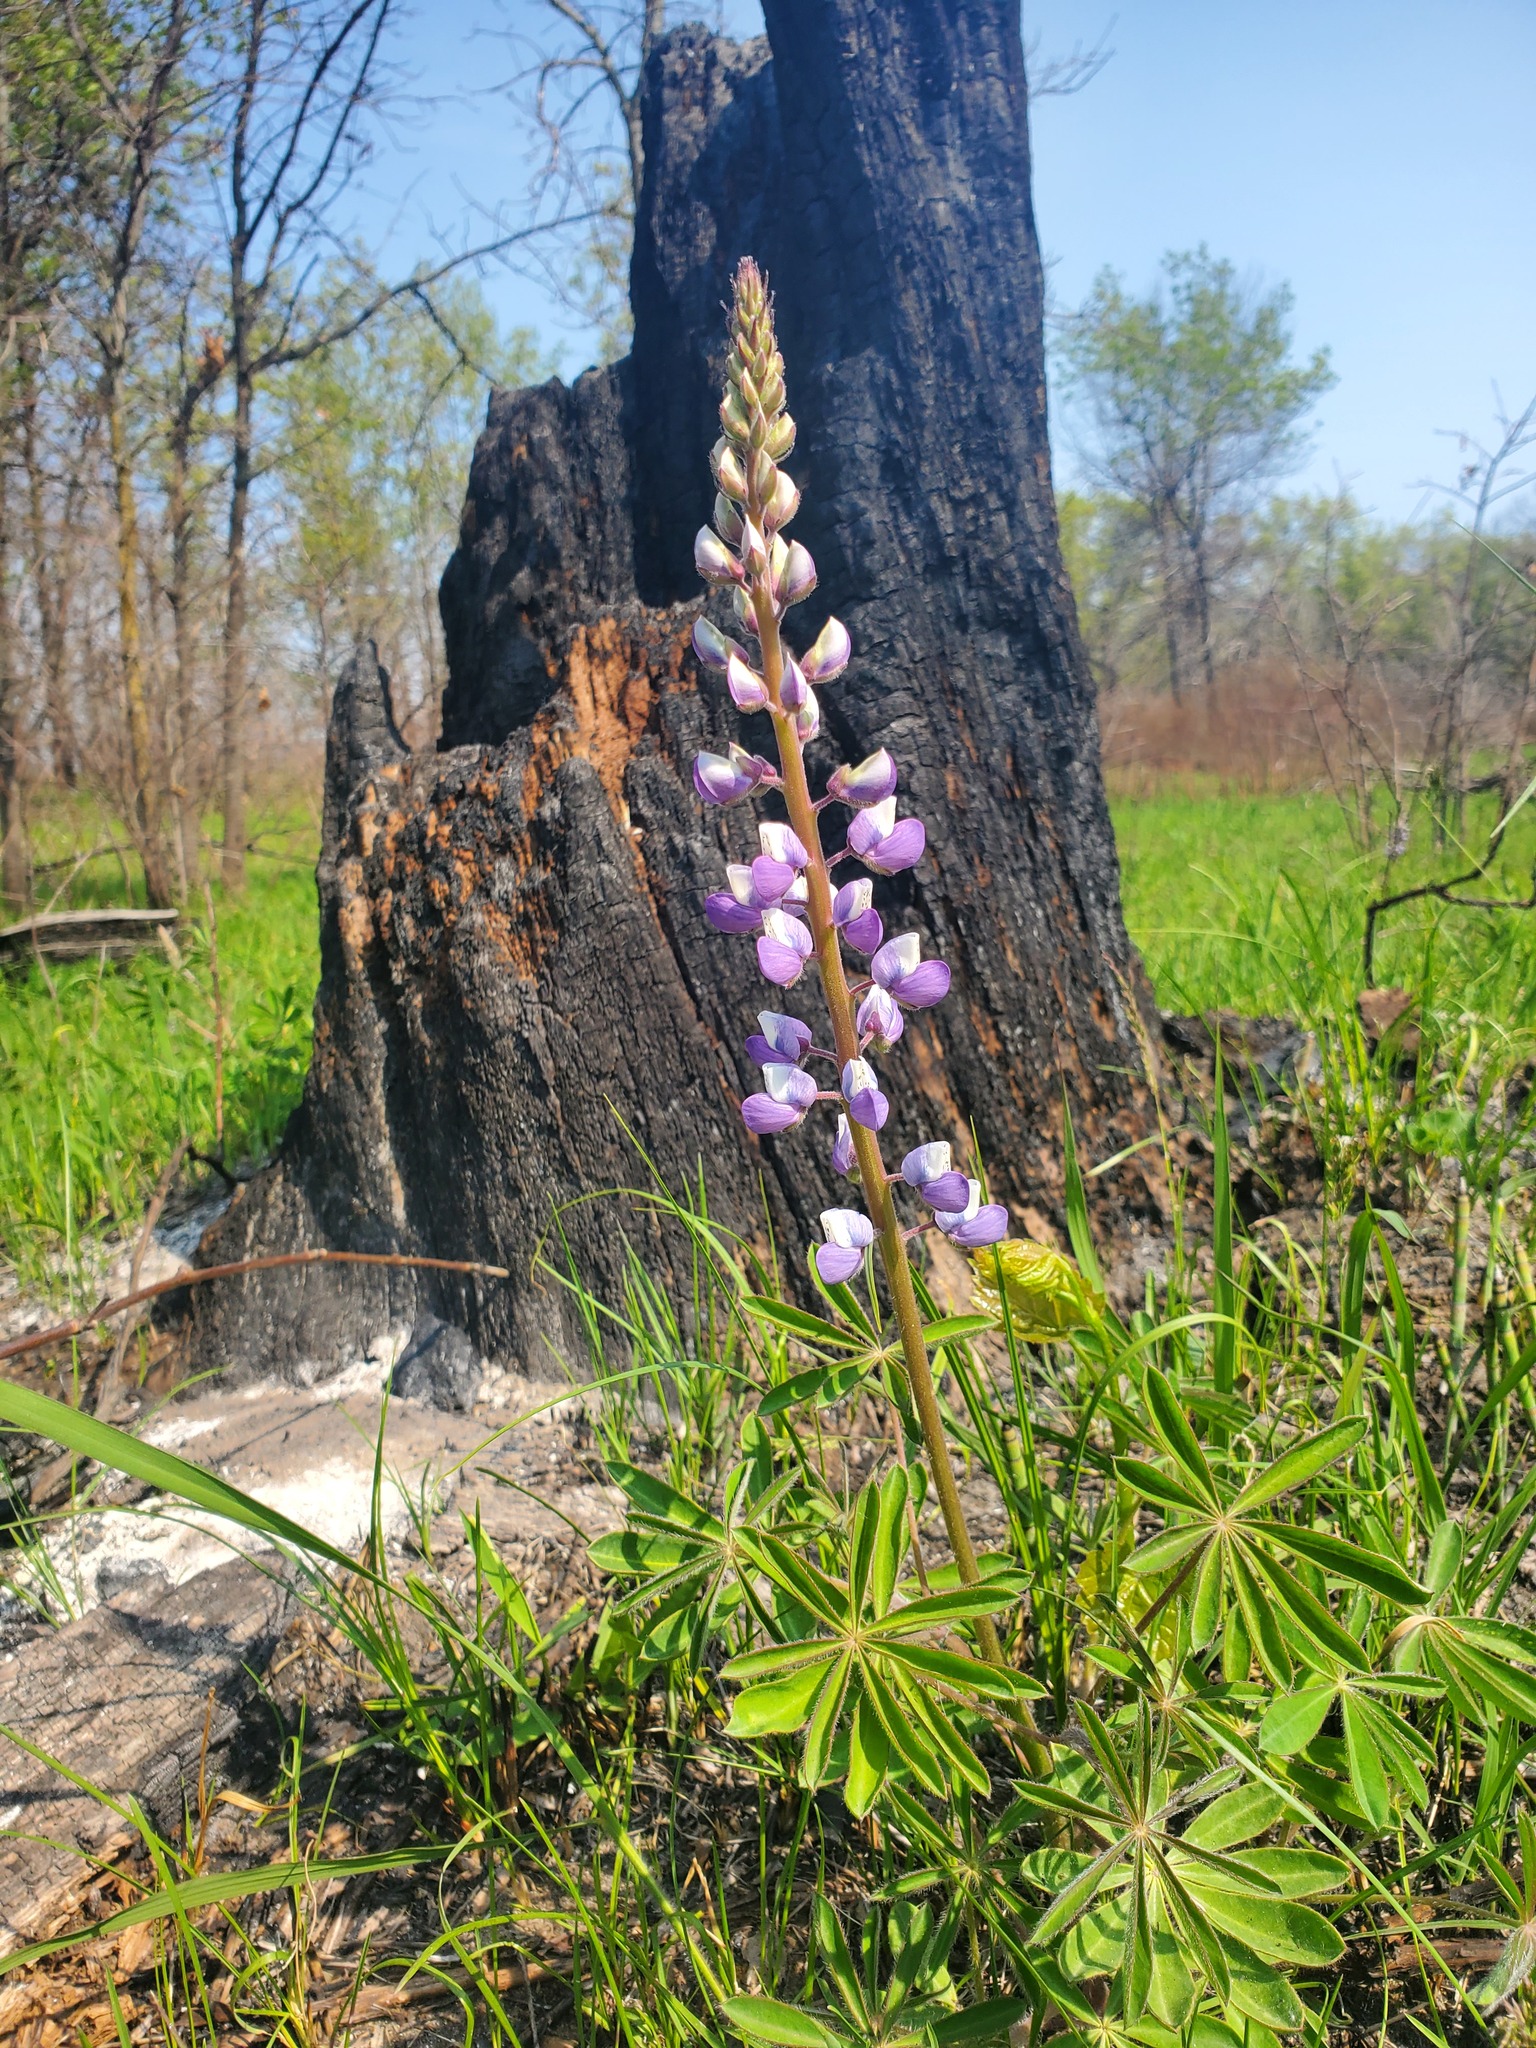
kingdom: Plantae
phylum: Tracheophyta
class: Magnoliopsida
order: Fabales
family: Fabaceae
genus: Lupinus
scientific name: Lupinus perennis
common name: Sundial lupine
